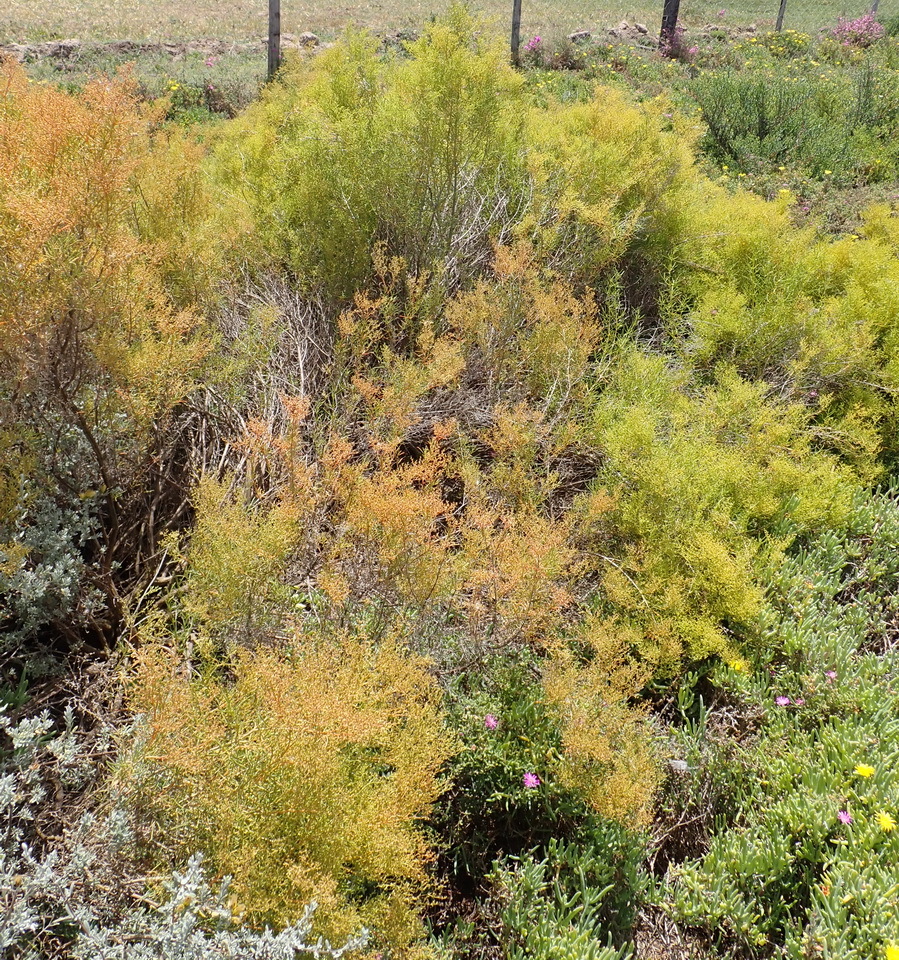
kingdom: Plantae
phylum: Tracheophyta
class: Magnoliopsida
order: Caryophyllales
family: Aizoaceae
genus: Aizoon
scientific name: Aizoon africanum
